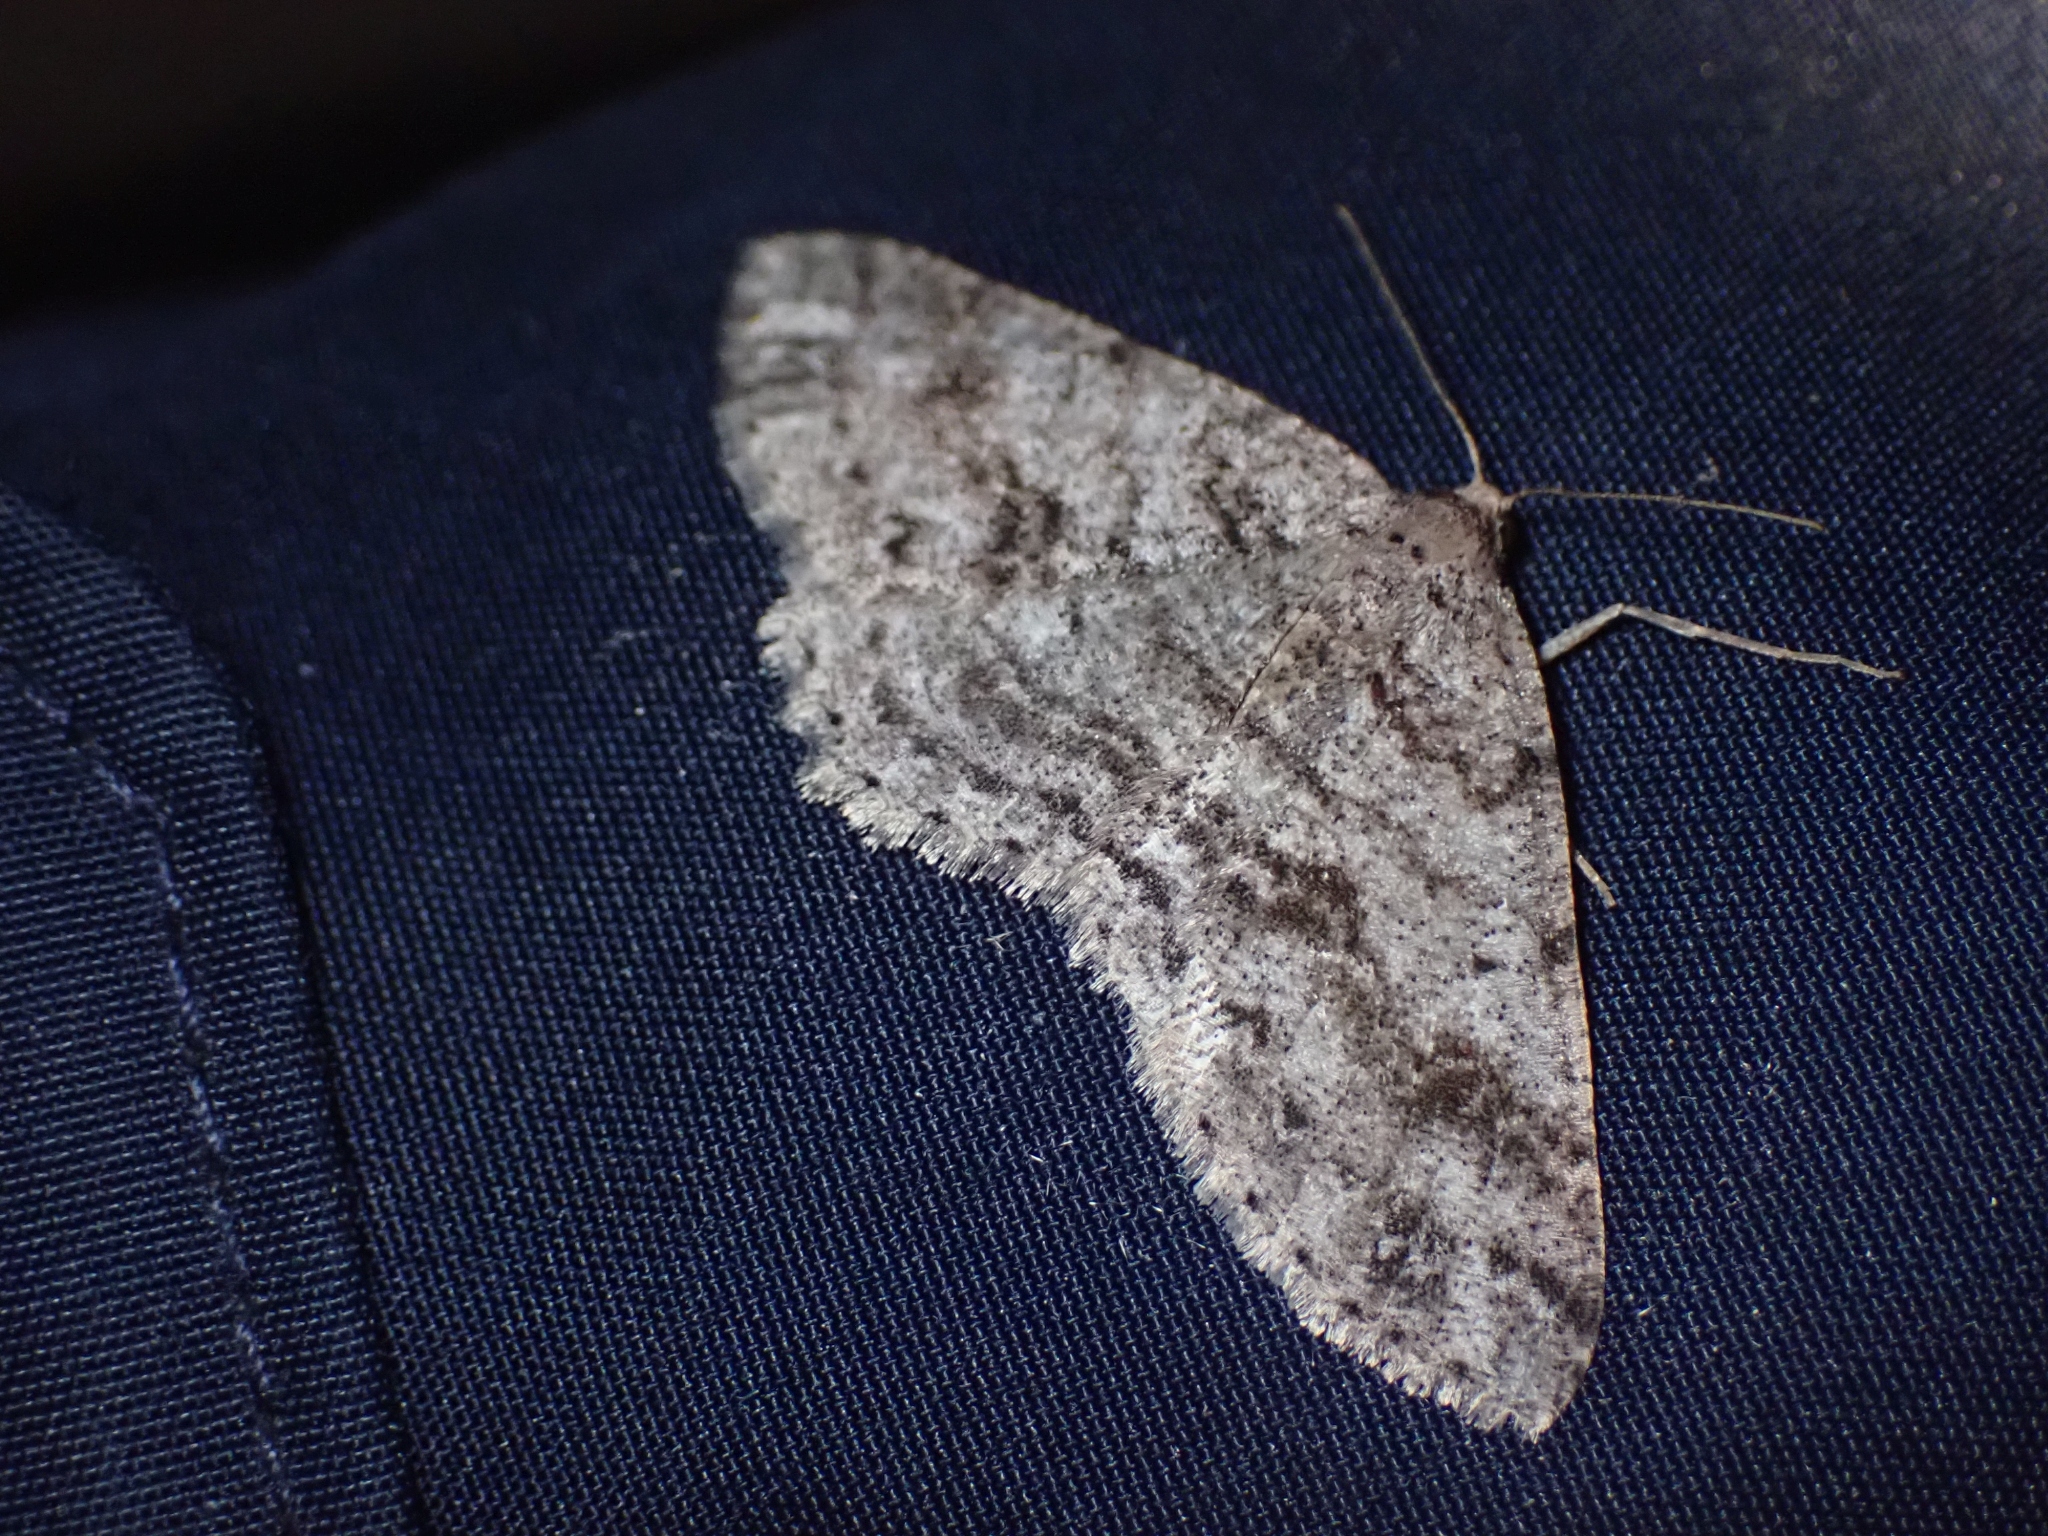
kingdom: Animalia
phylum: Arthropoda
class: Insecta
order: Lepidoptera
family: Geometridae
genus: Melanolophia
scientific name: Melanolophia imitata
